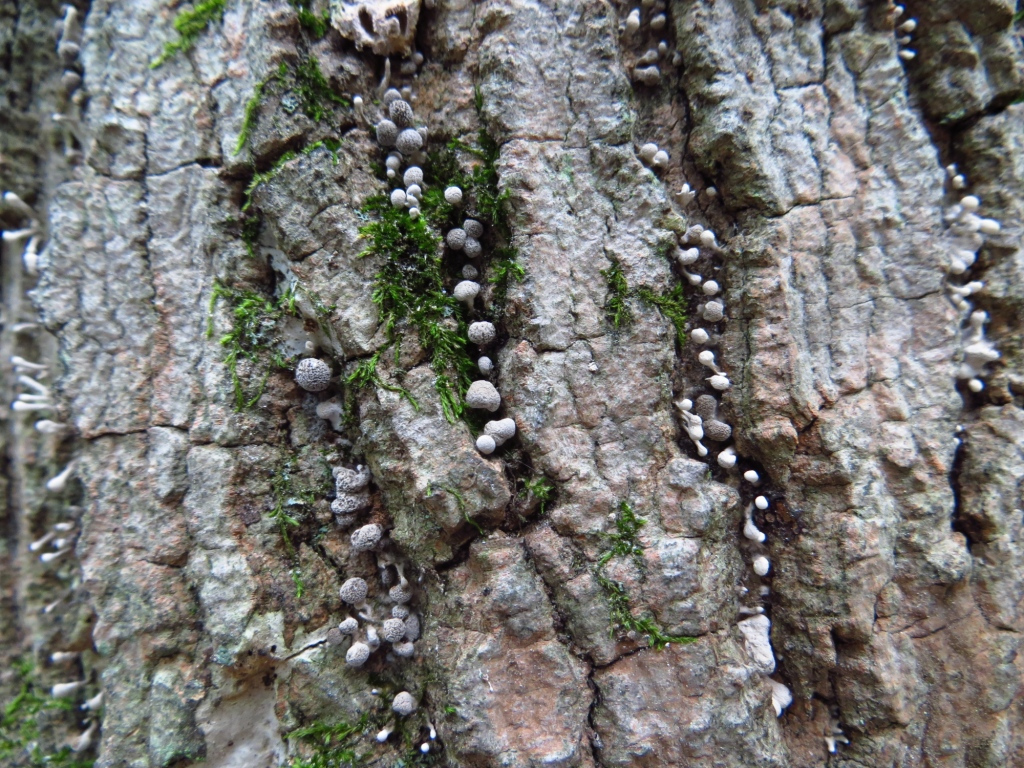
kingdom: Fungi
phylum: Basidiomycota
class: Atractiellomycetes
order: Atractiellales
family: Phleogenaceae
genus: Phleogena
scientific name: Phleogena faginea
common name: Fenugreek stalkball
